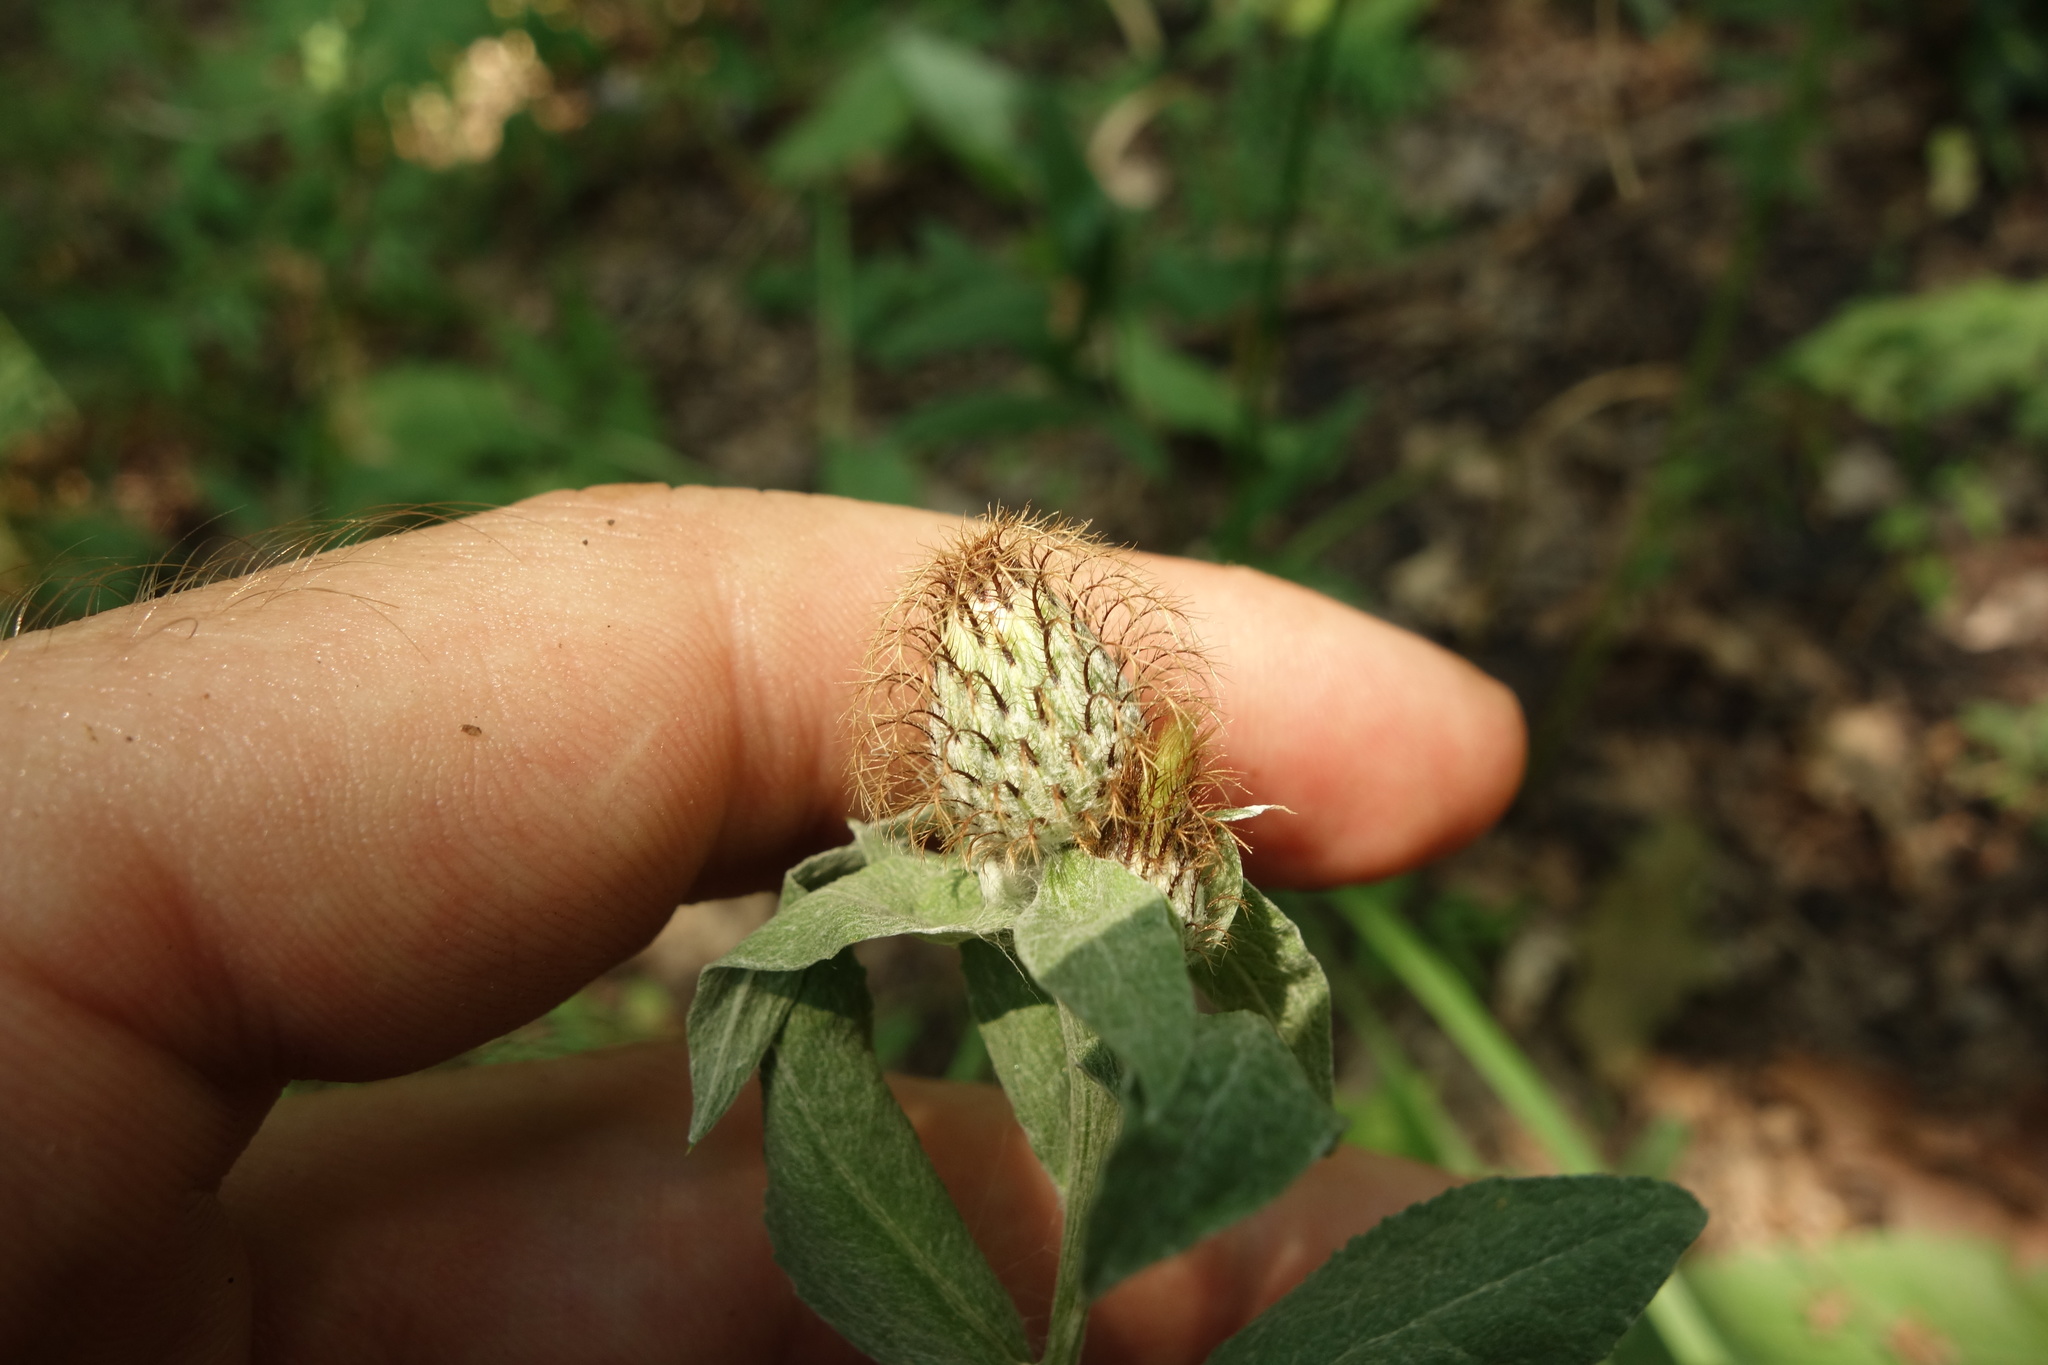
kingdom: Plantae
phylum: Tracheophyta
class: Magnoliopsida
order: Asterales
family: Asteraceae
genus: Centaurea
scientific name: Centaurea phrygia
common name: Wig knapweed
